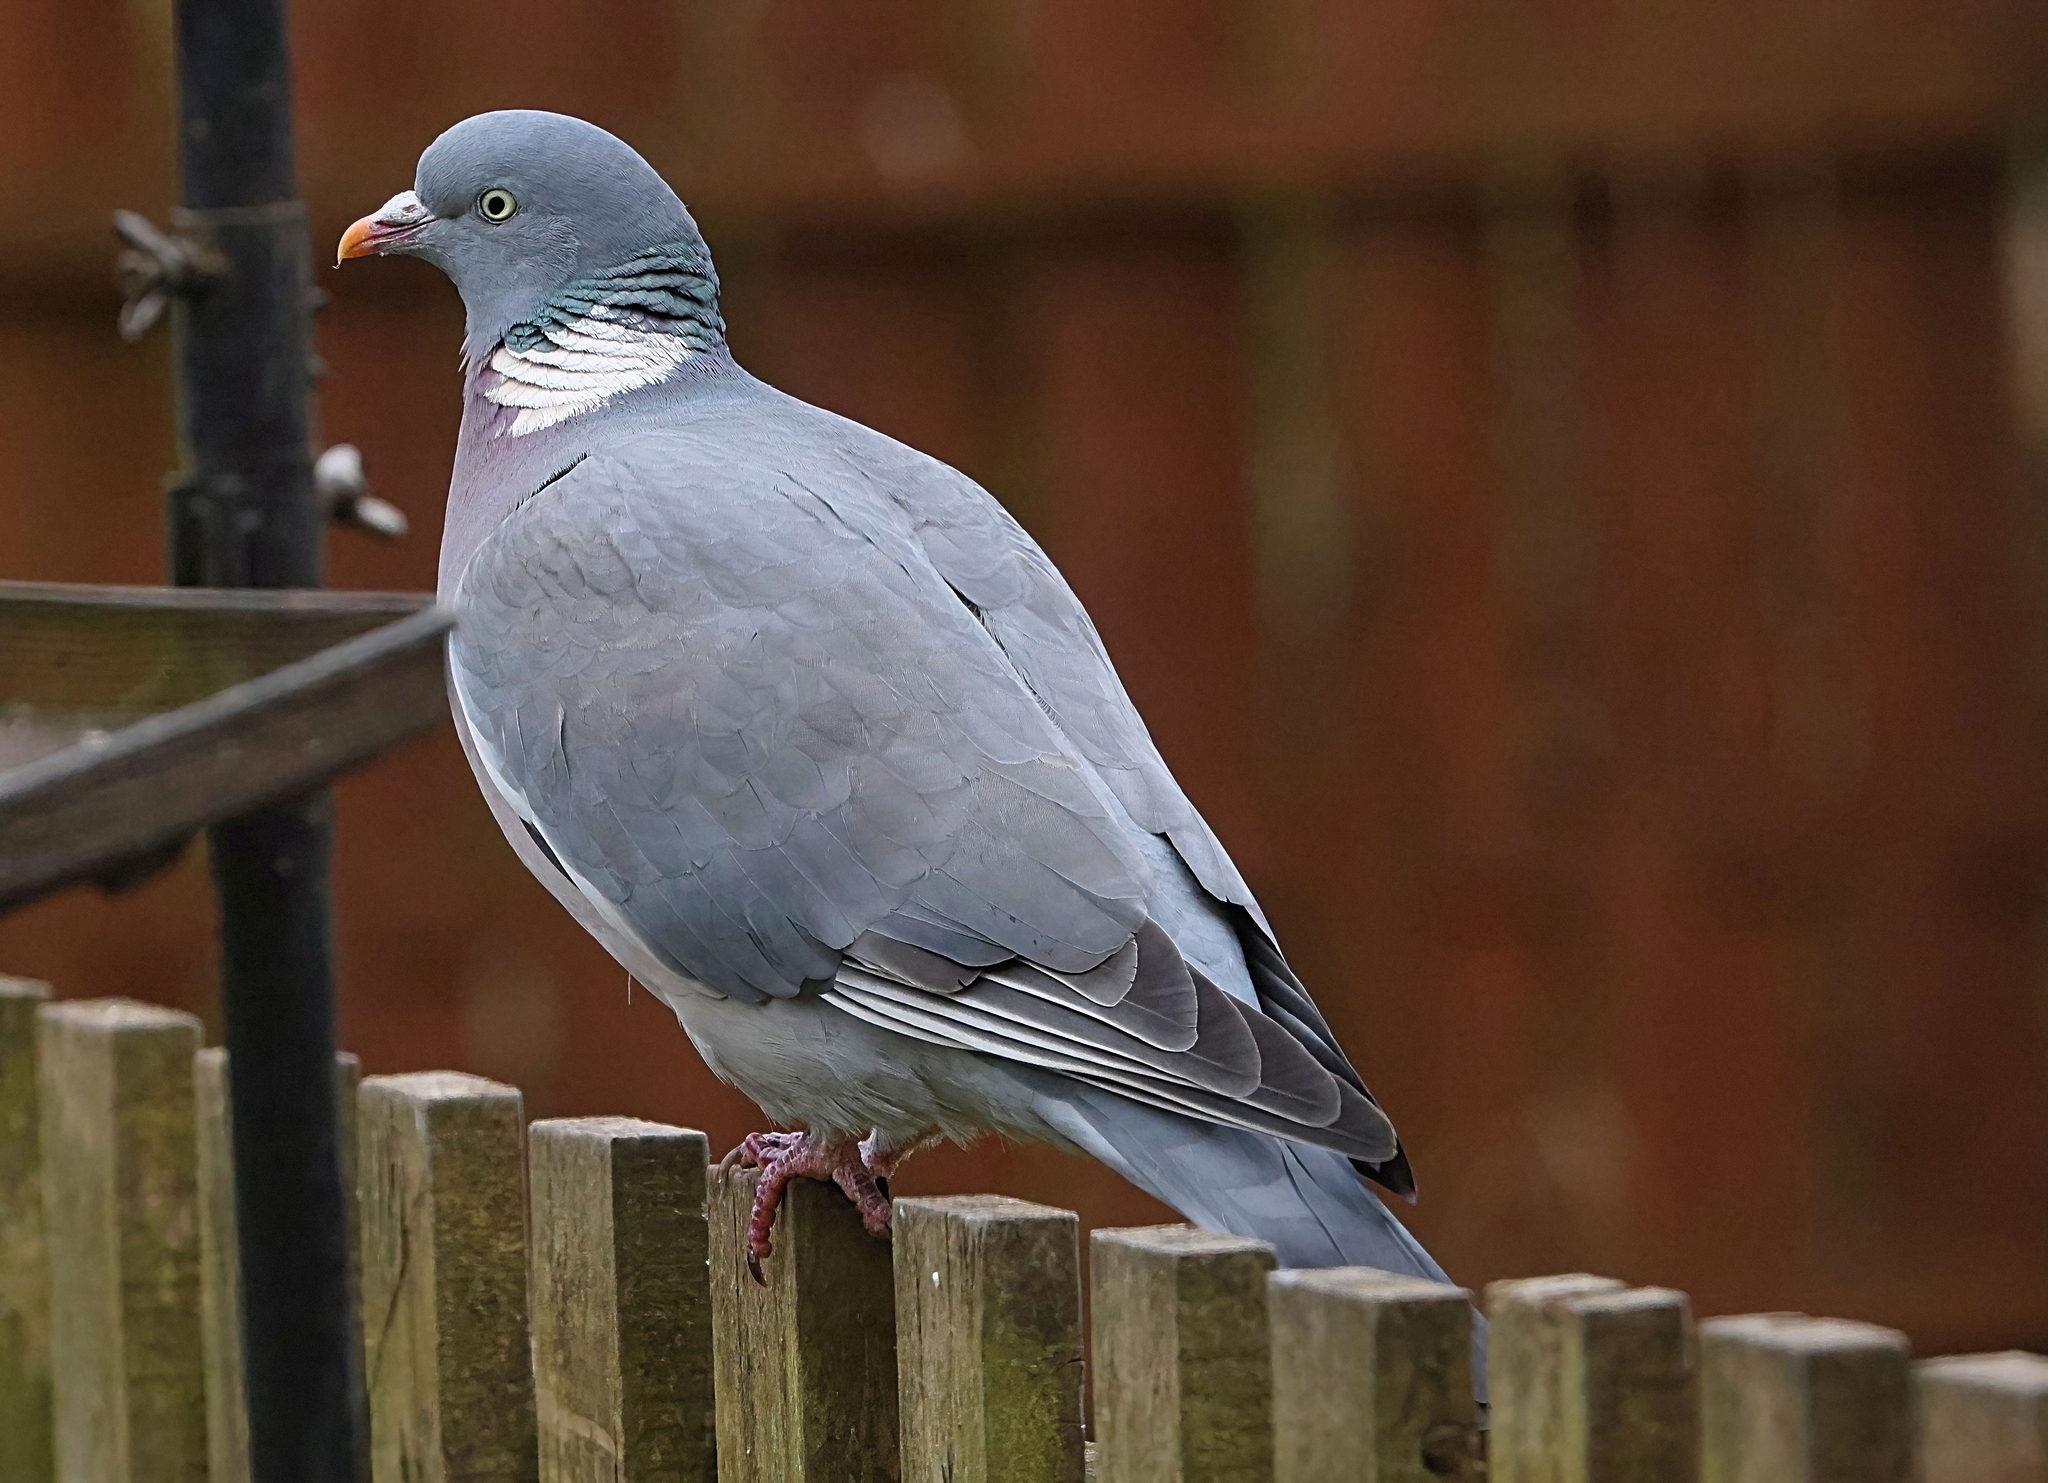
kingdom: Animalia
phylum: Chordata
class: Aves
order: Columbiformes
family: Columbidae
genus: Columba
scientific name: Columba palumbus
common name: Common wood pigeon
